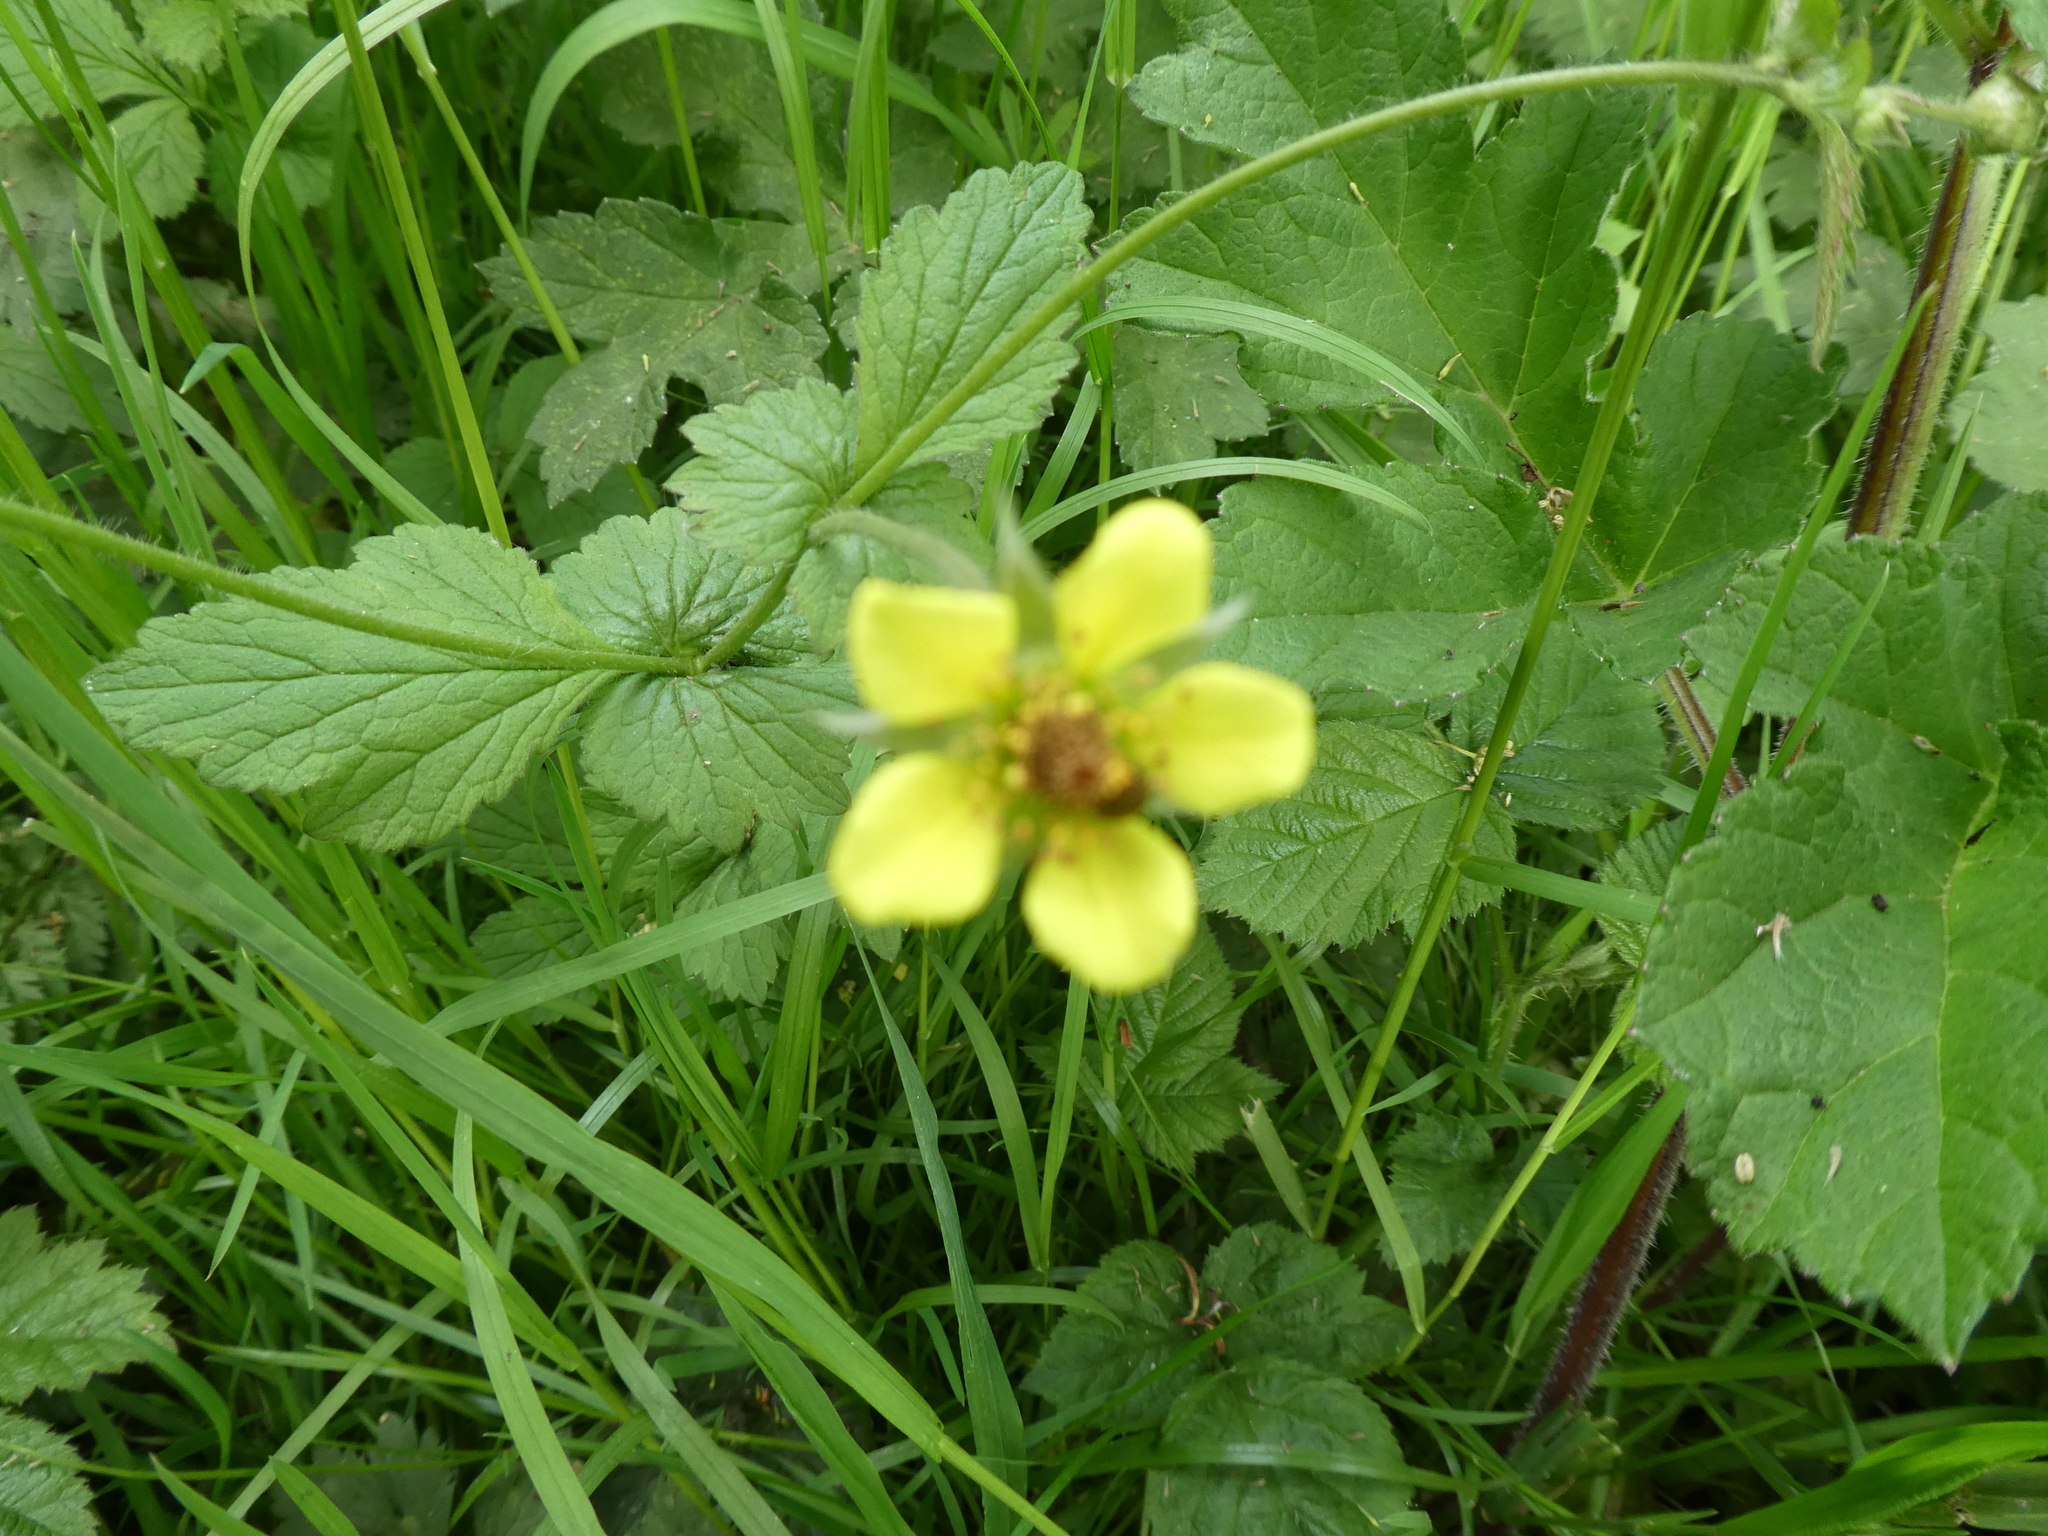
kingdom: Plantae
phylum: Tracheophyta
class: Magnoliopsida
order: Rosales
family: Rosaceae
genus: Geum
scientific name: Geum urbanum
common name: Wood avens
